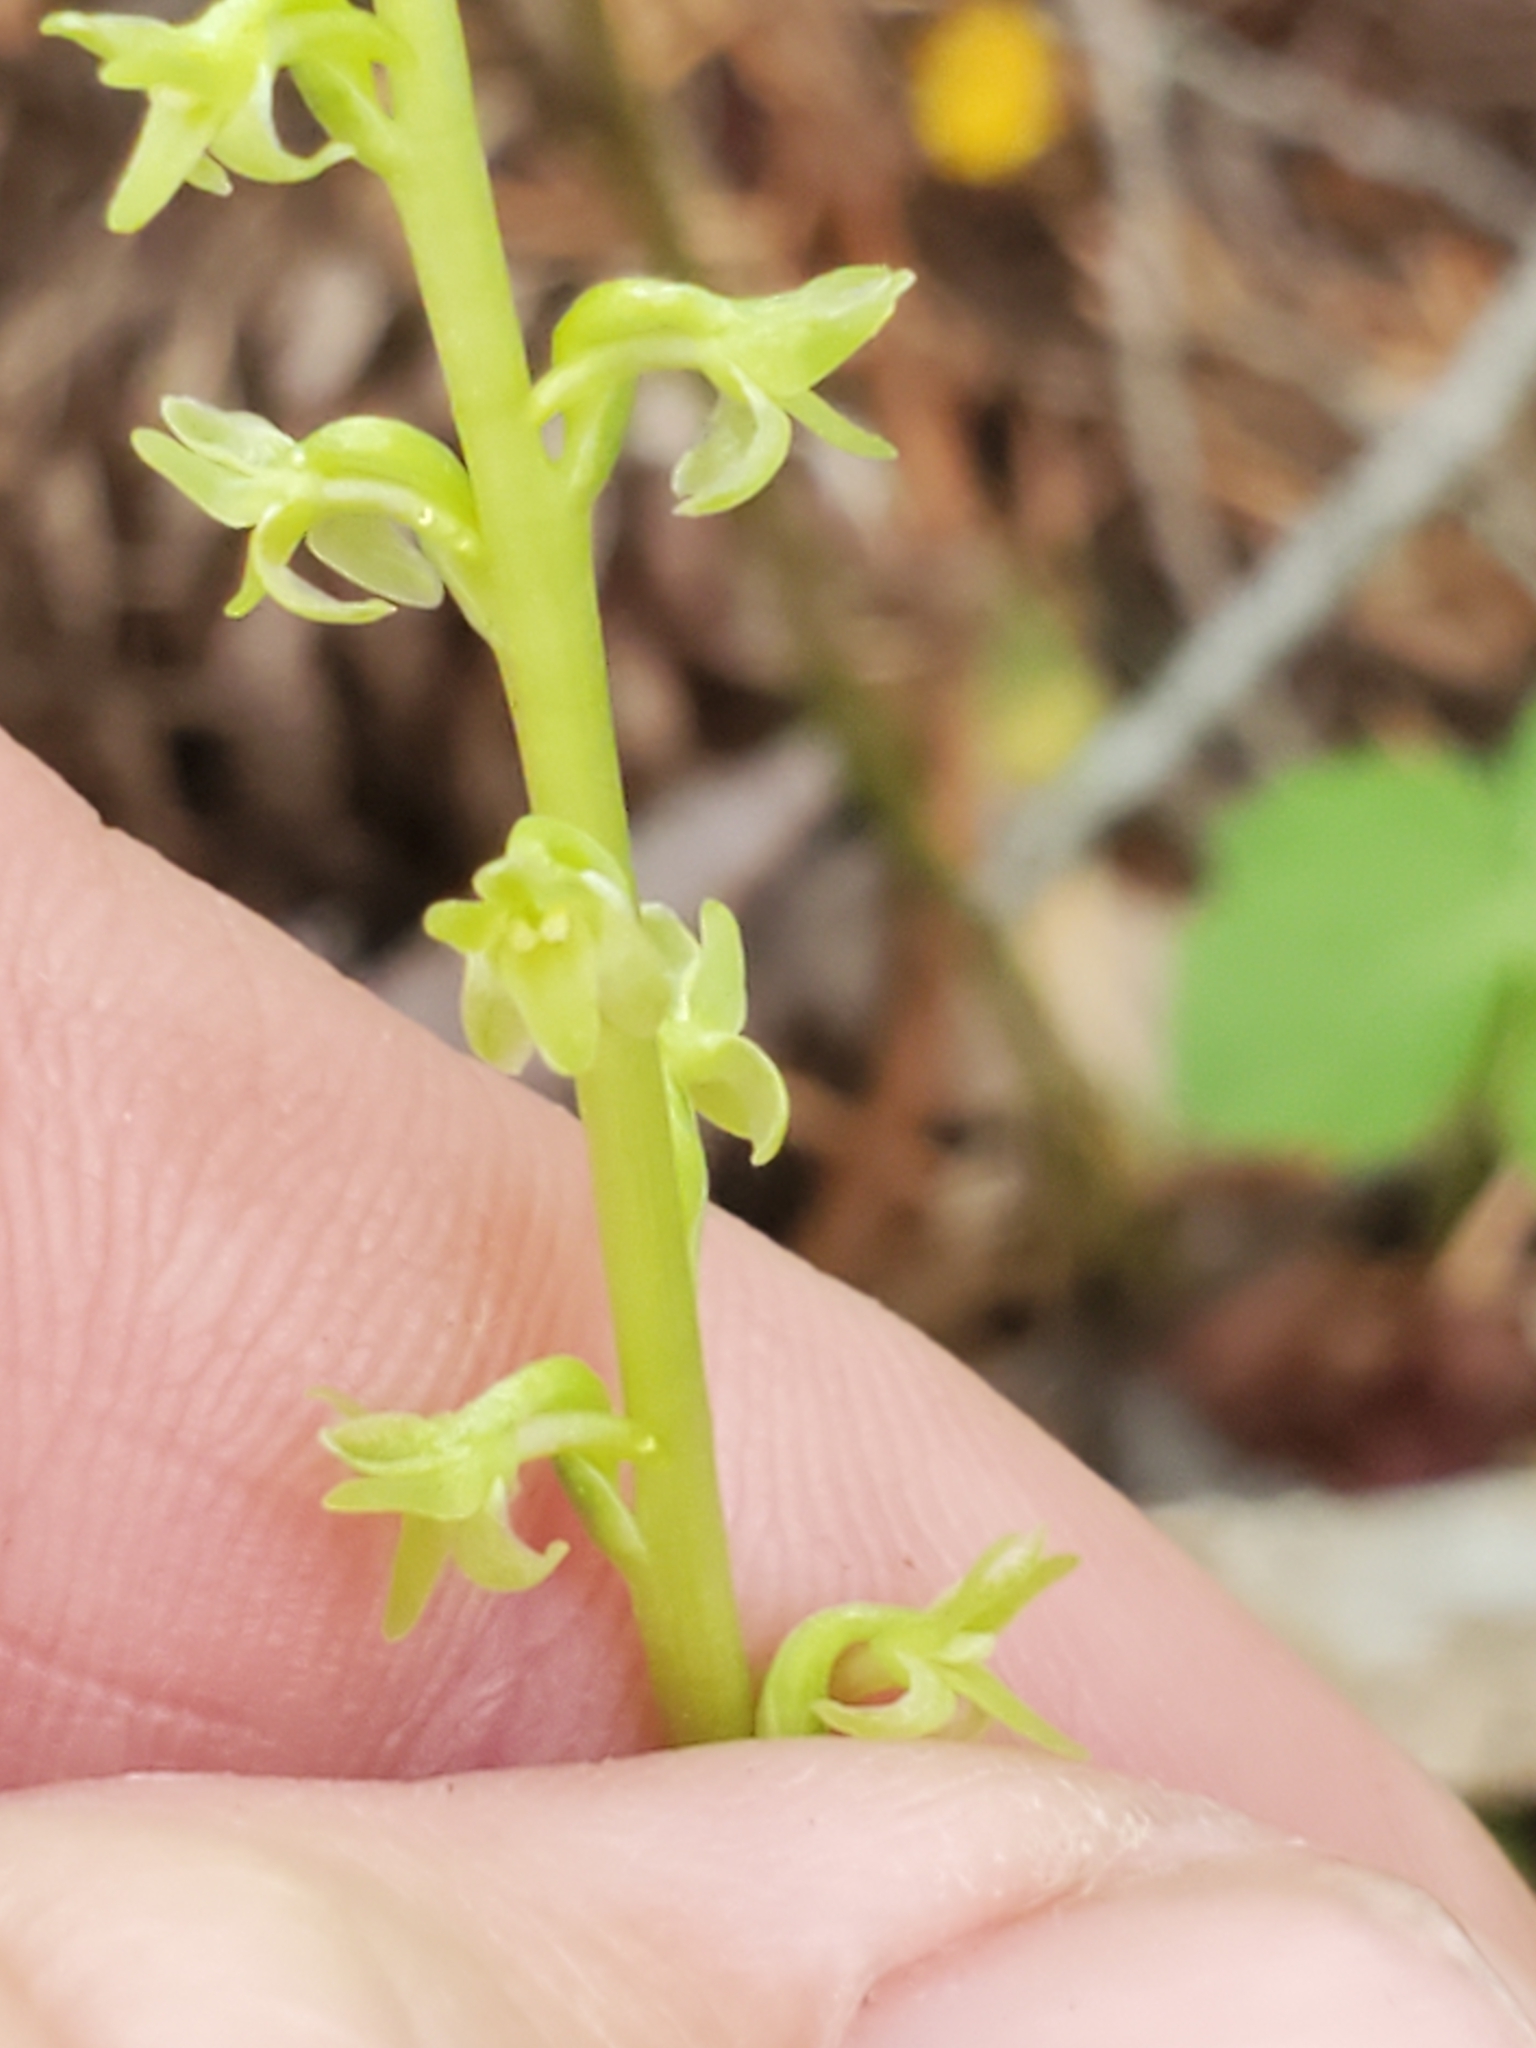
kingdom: Plantae
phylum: Tracheophyta
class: Liliopsida
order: Asparagales
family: Orchidaceae
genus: Platanthera
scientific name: Platanthera unalascensis
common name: Alaska bog orchid
